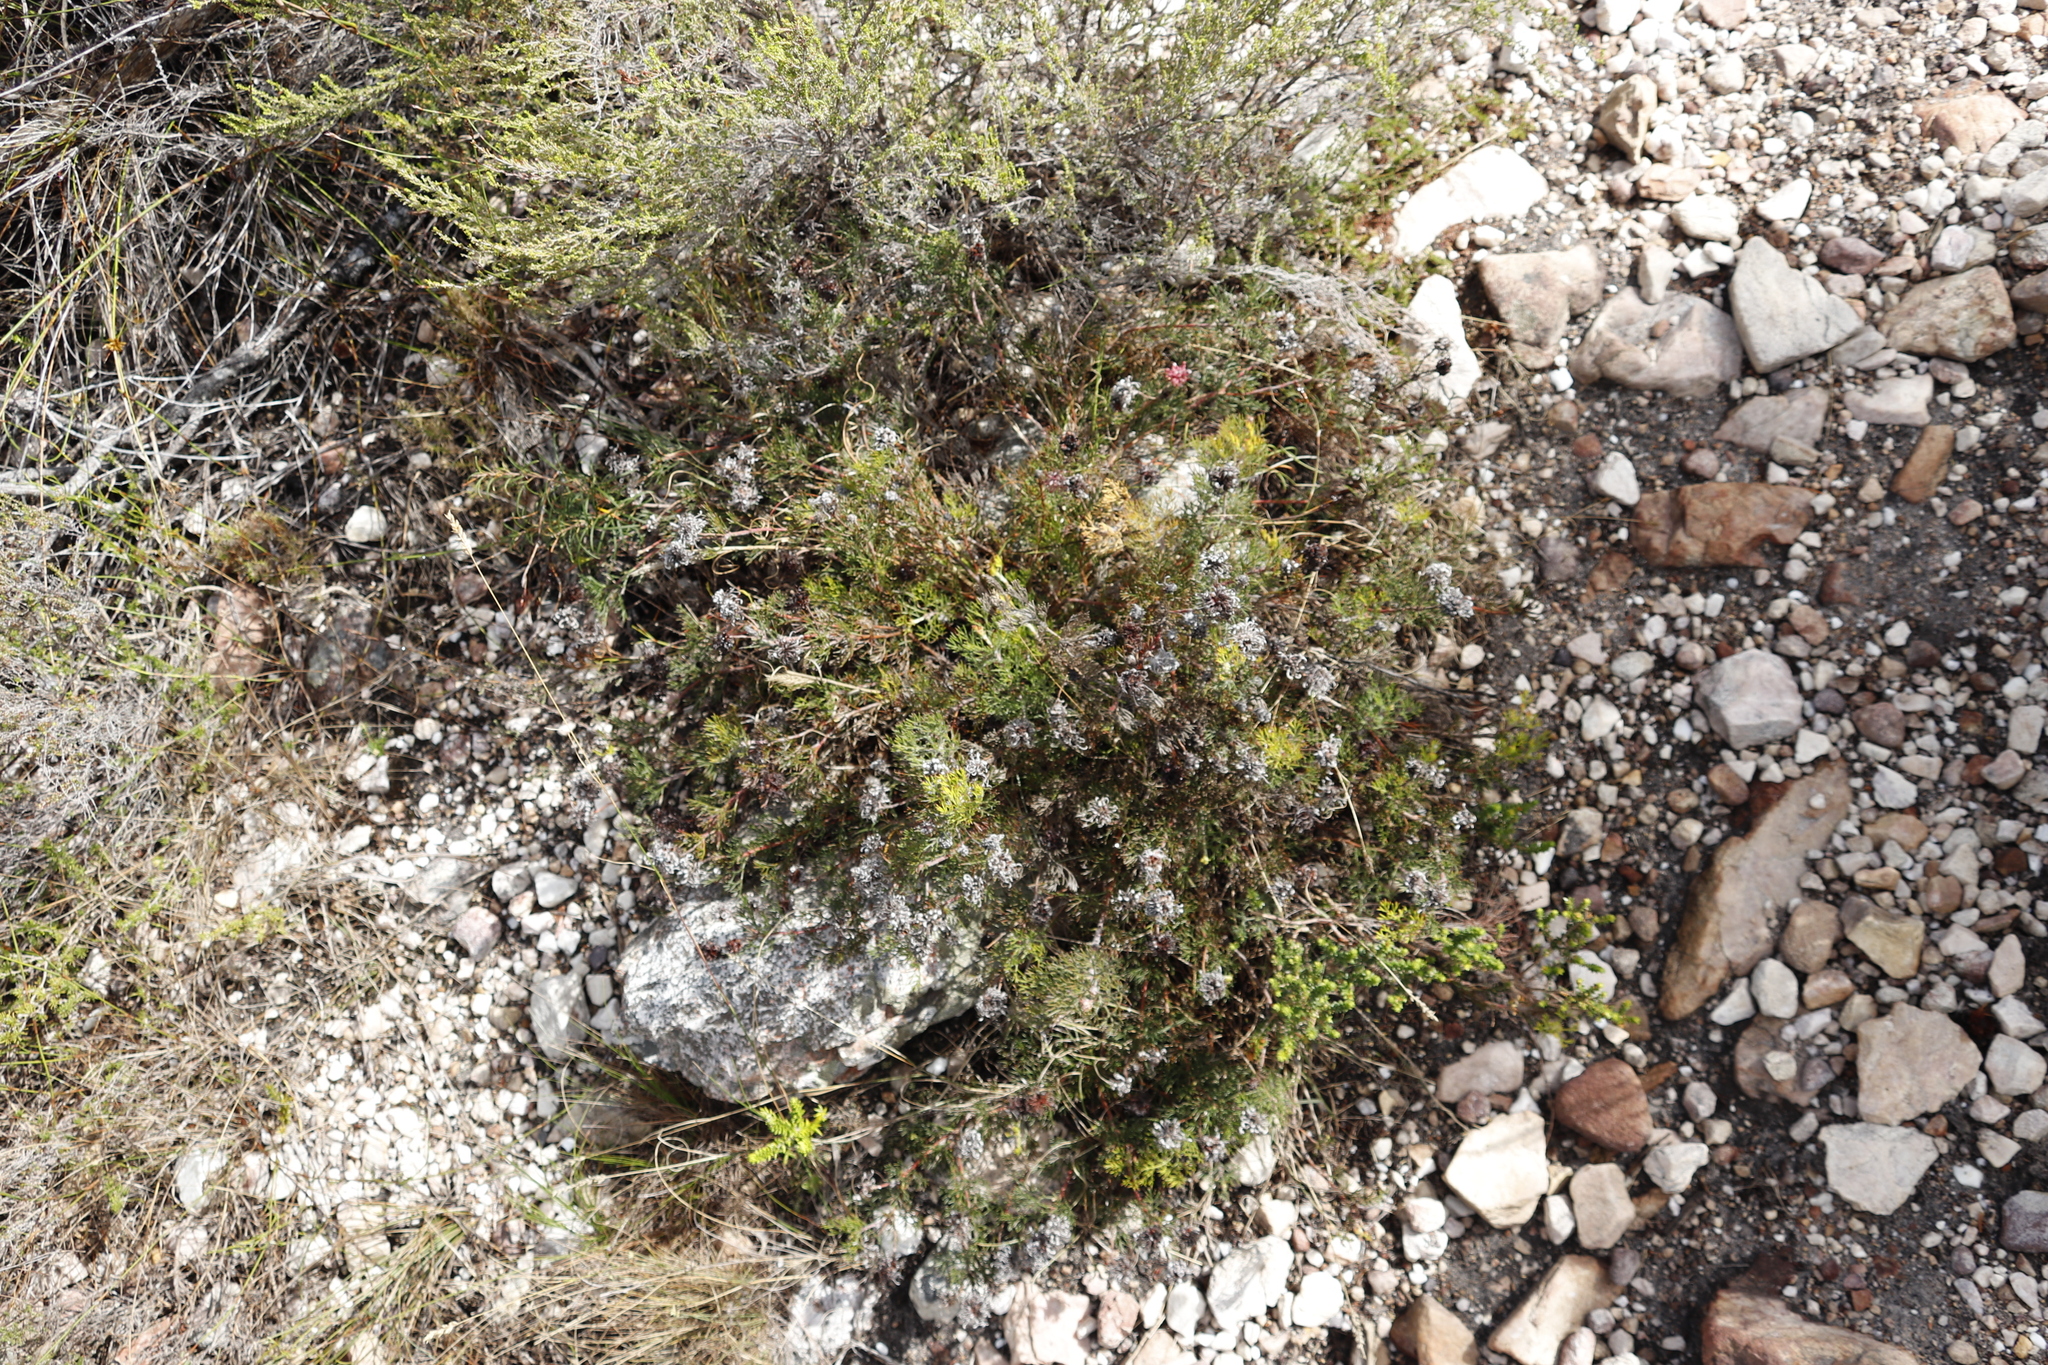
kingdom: Plantae
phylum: Tracheophyta
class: Magnoliopsida
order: Proteales
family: Proteaceae
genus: Serruria
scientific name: Serruria
